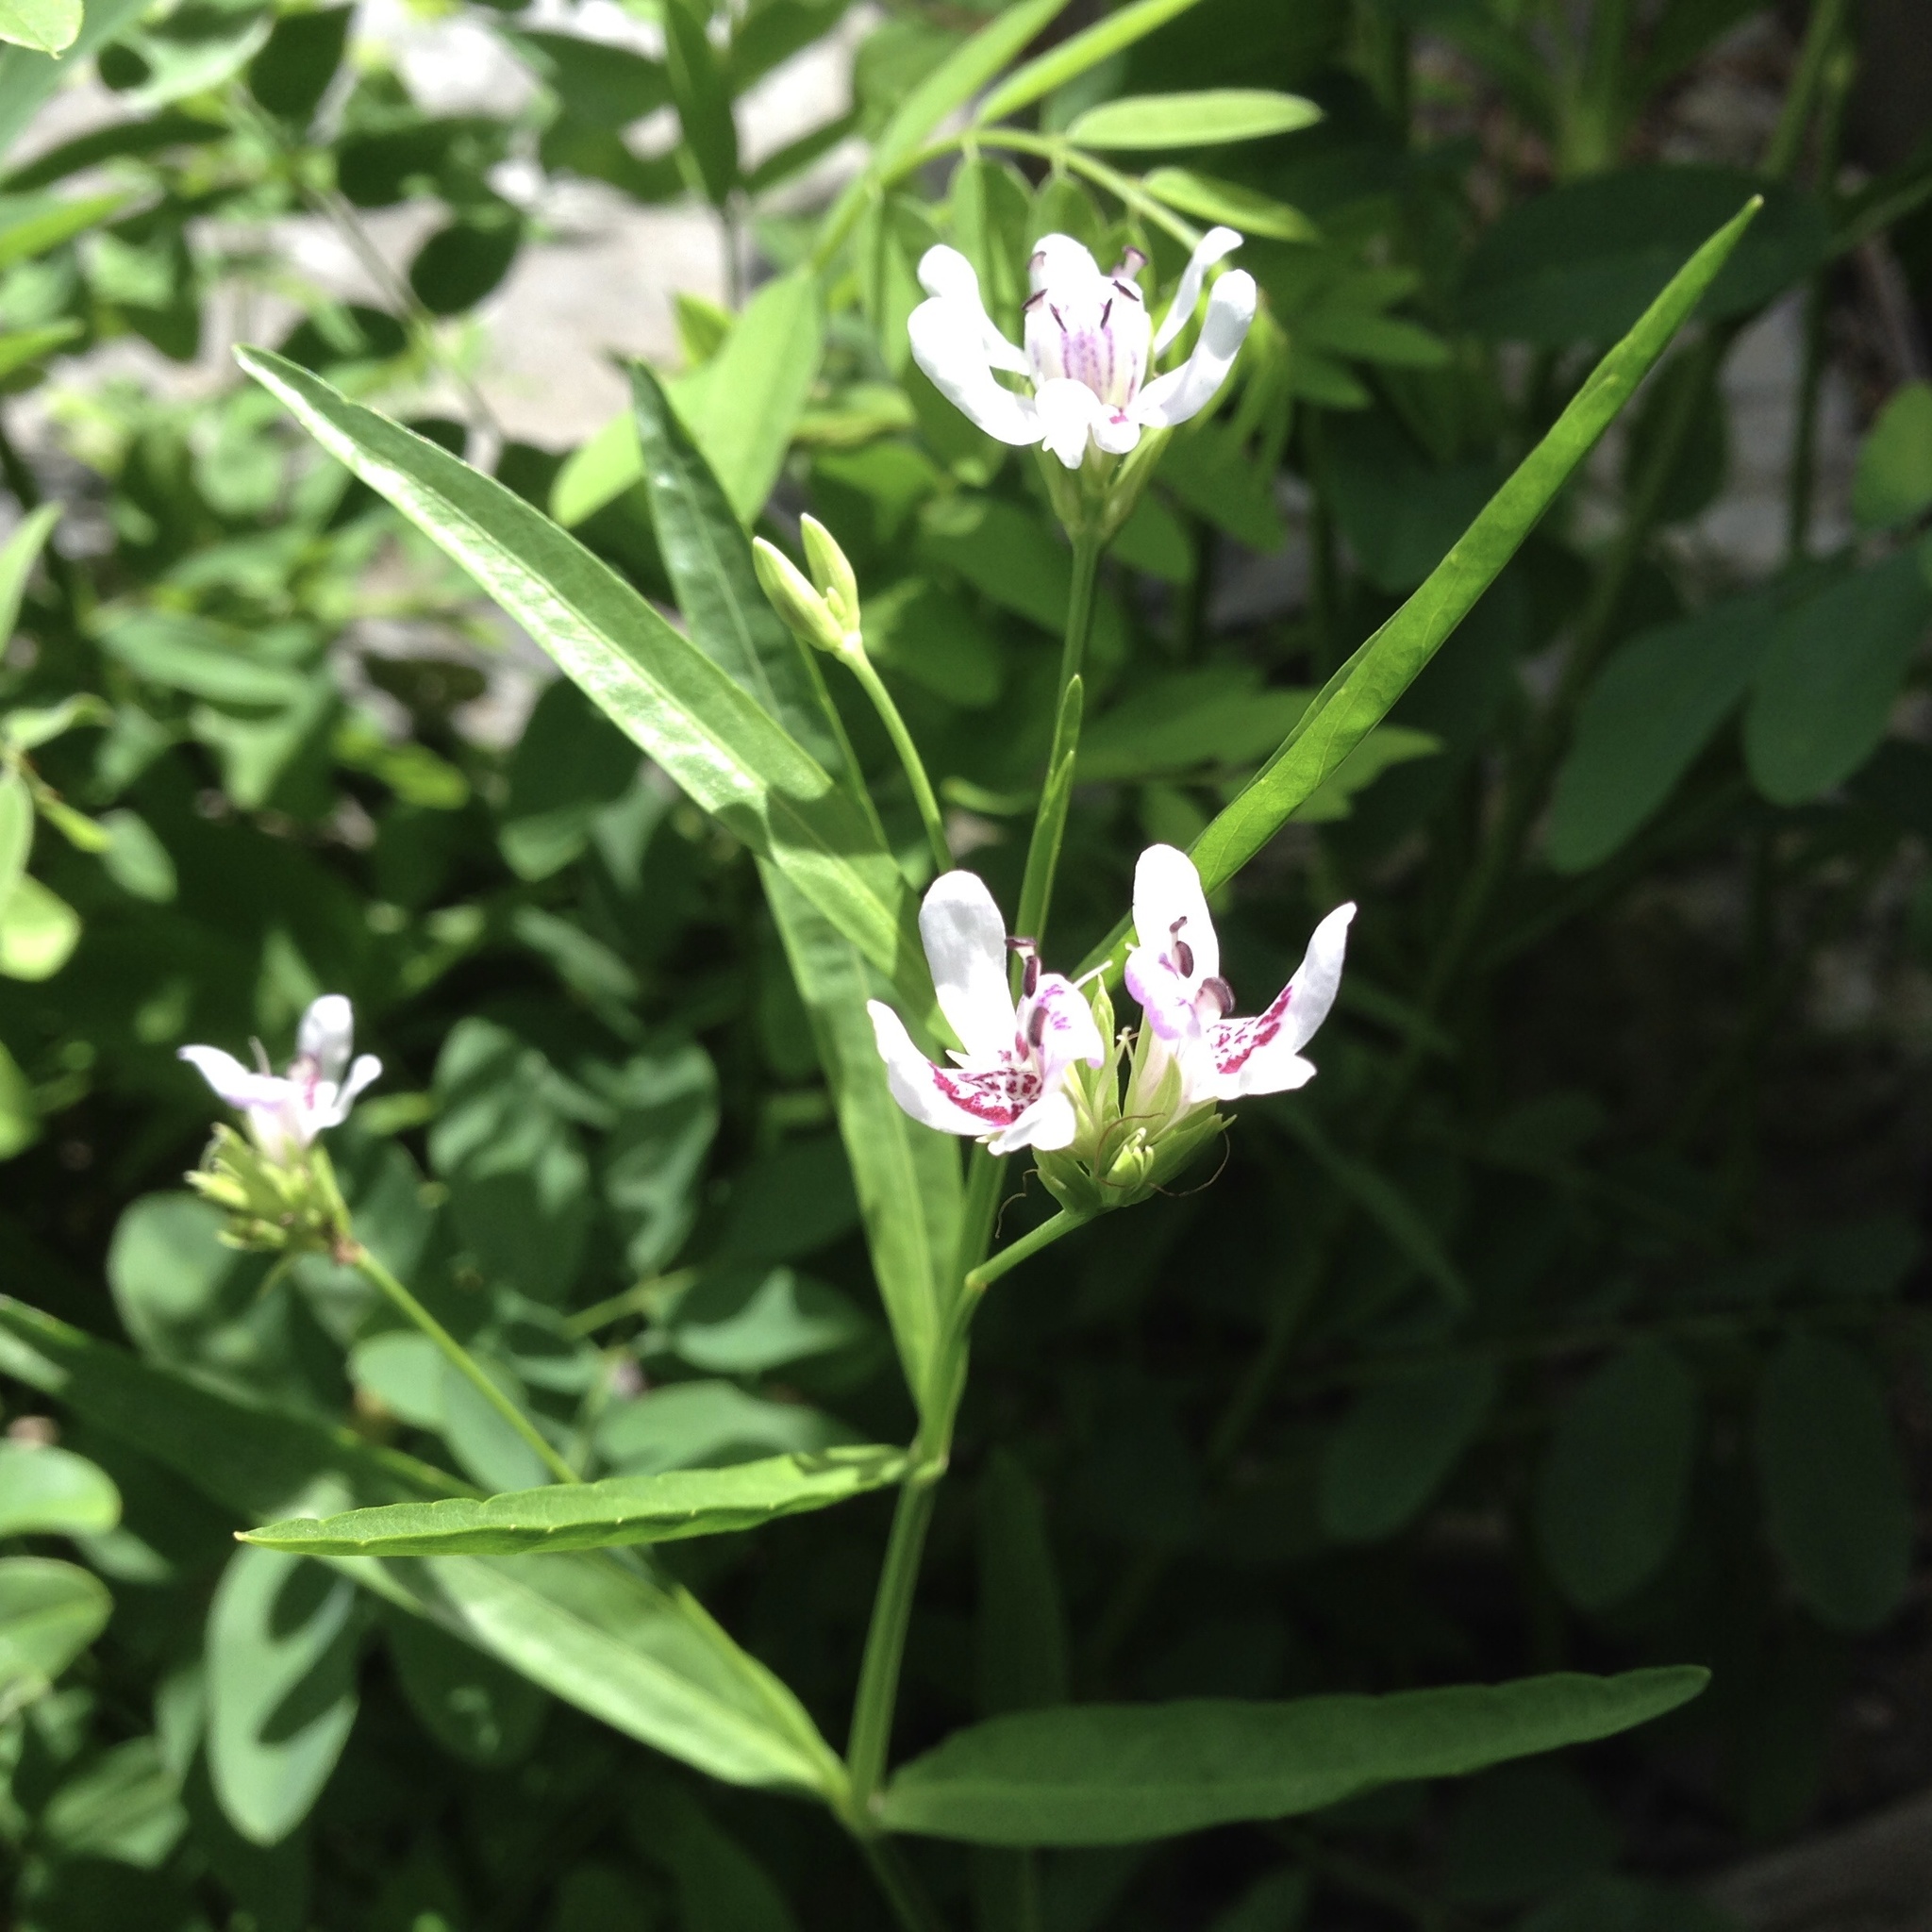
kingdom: Plantae
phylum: Tracheophyta
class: Magnoliopsida
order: Lamiales
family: Acanthaceae
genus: Dianthera
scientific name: Dianthera americana
